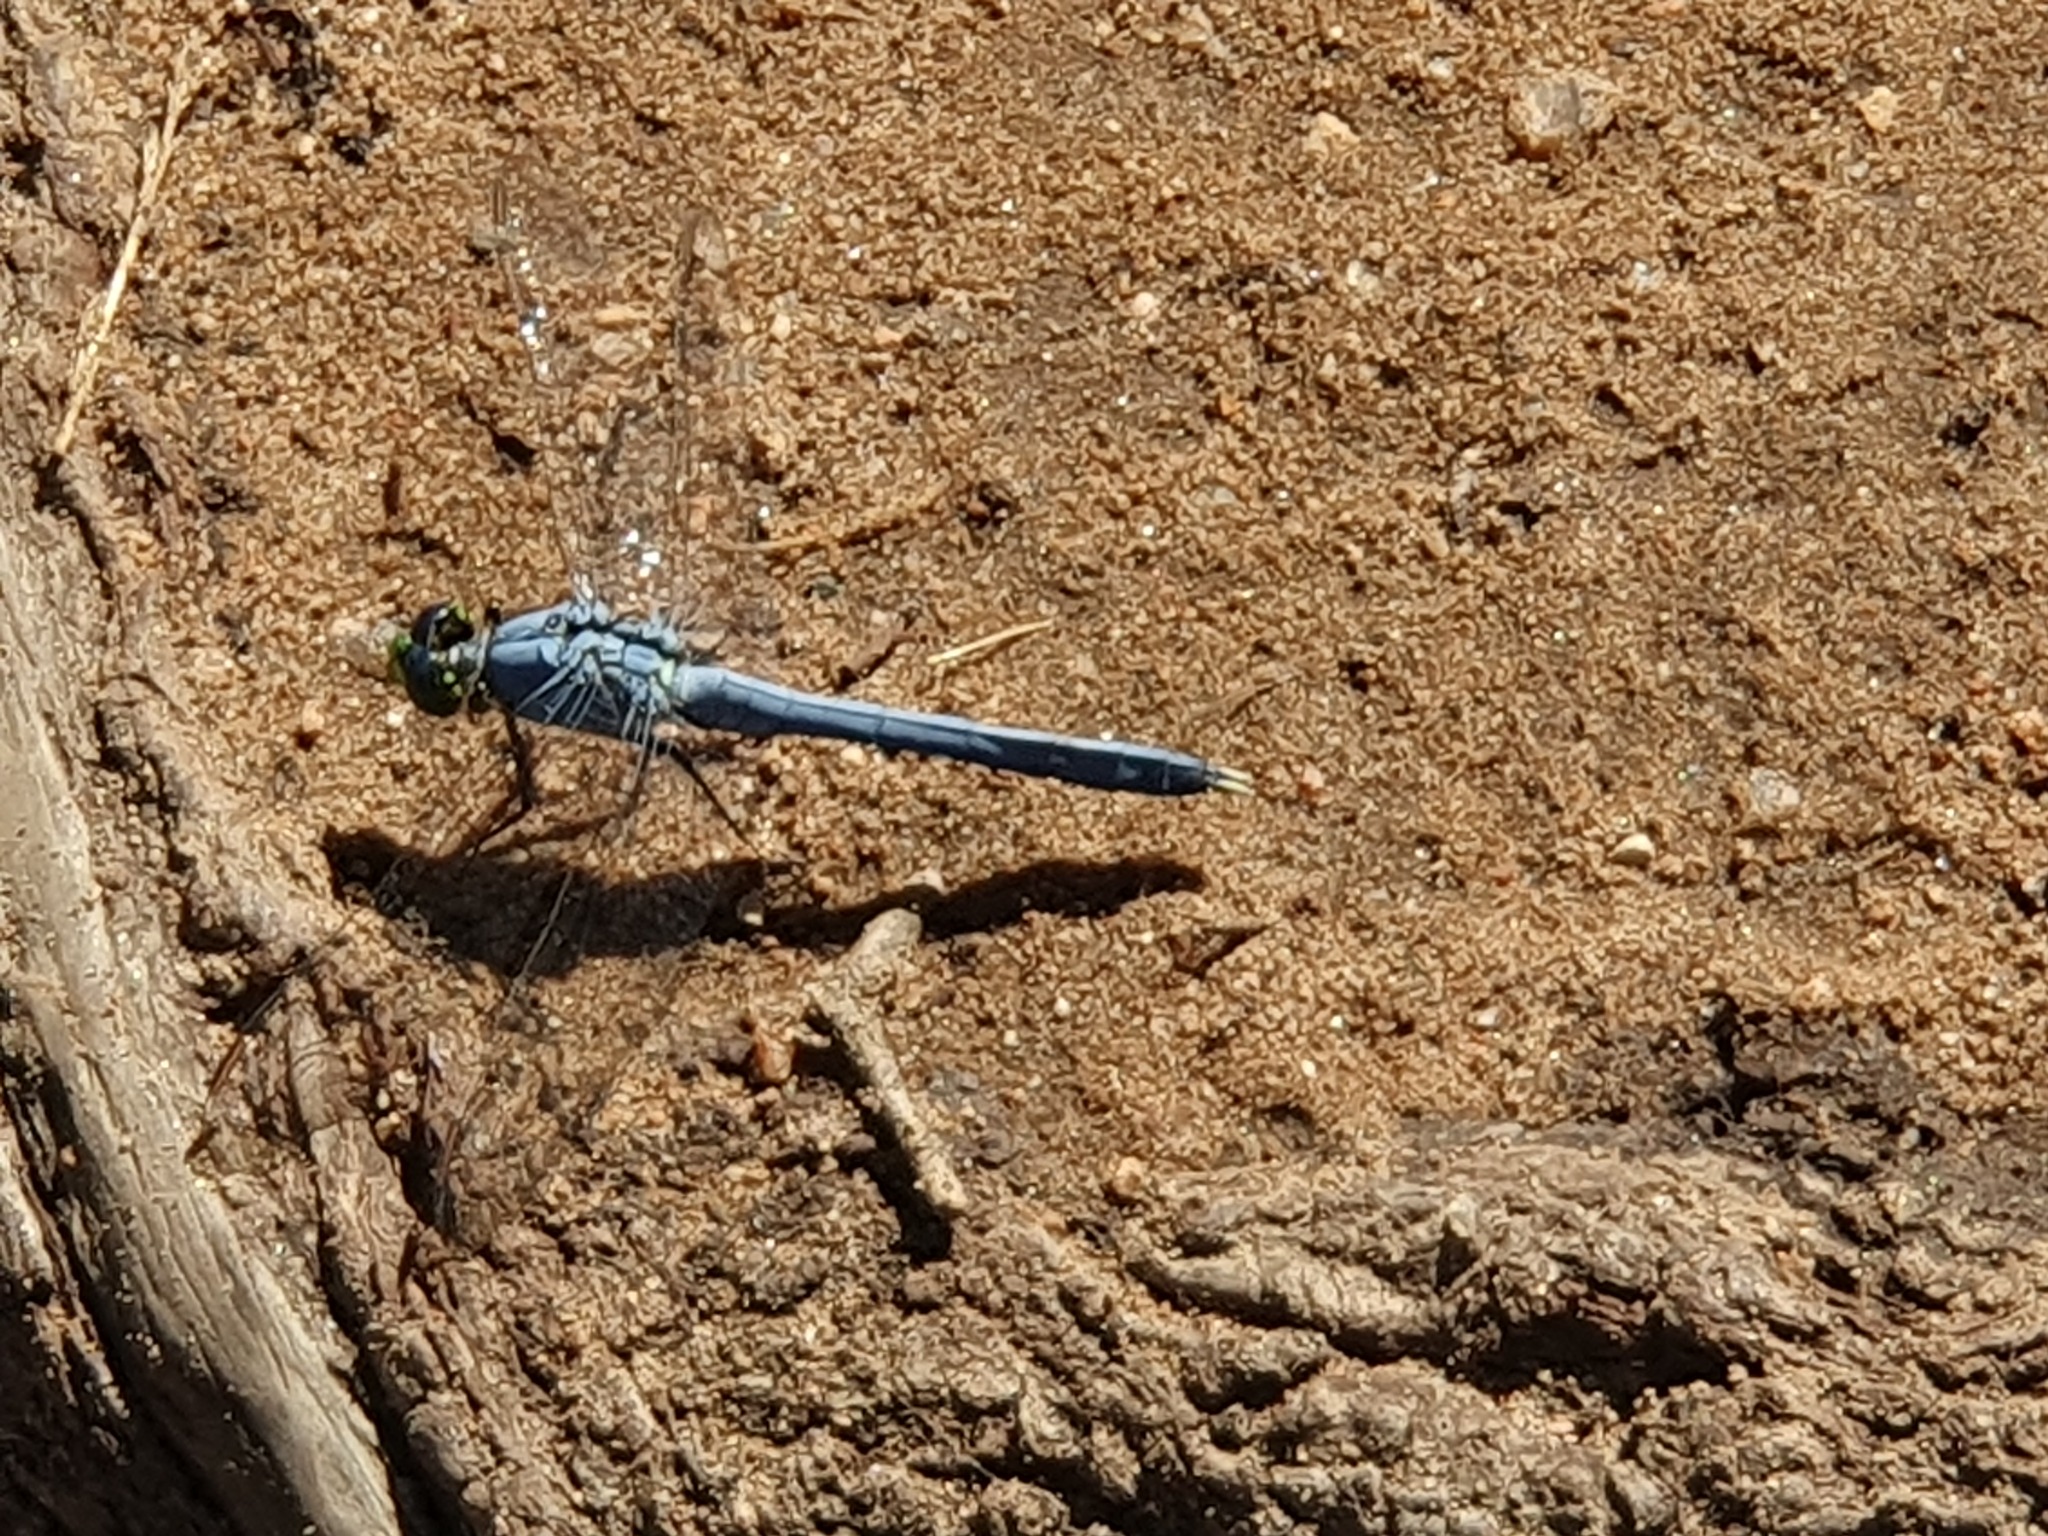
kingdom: Animalia
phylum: Arthropoda
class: Insecta
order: Odonata
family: Libellulidae
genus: Erythemis
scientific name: Erythemis simplicicollis
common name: Eastern pondhawk
